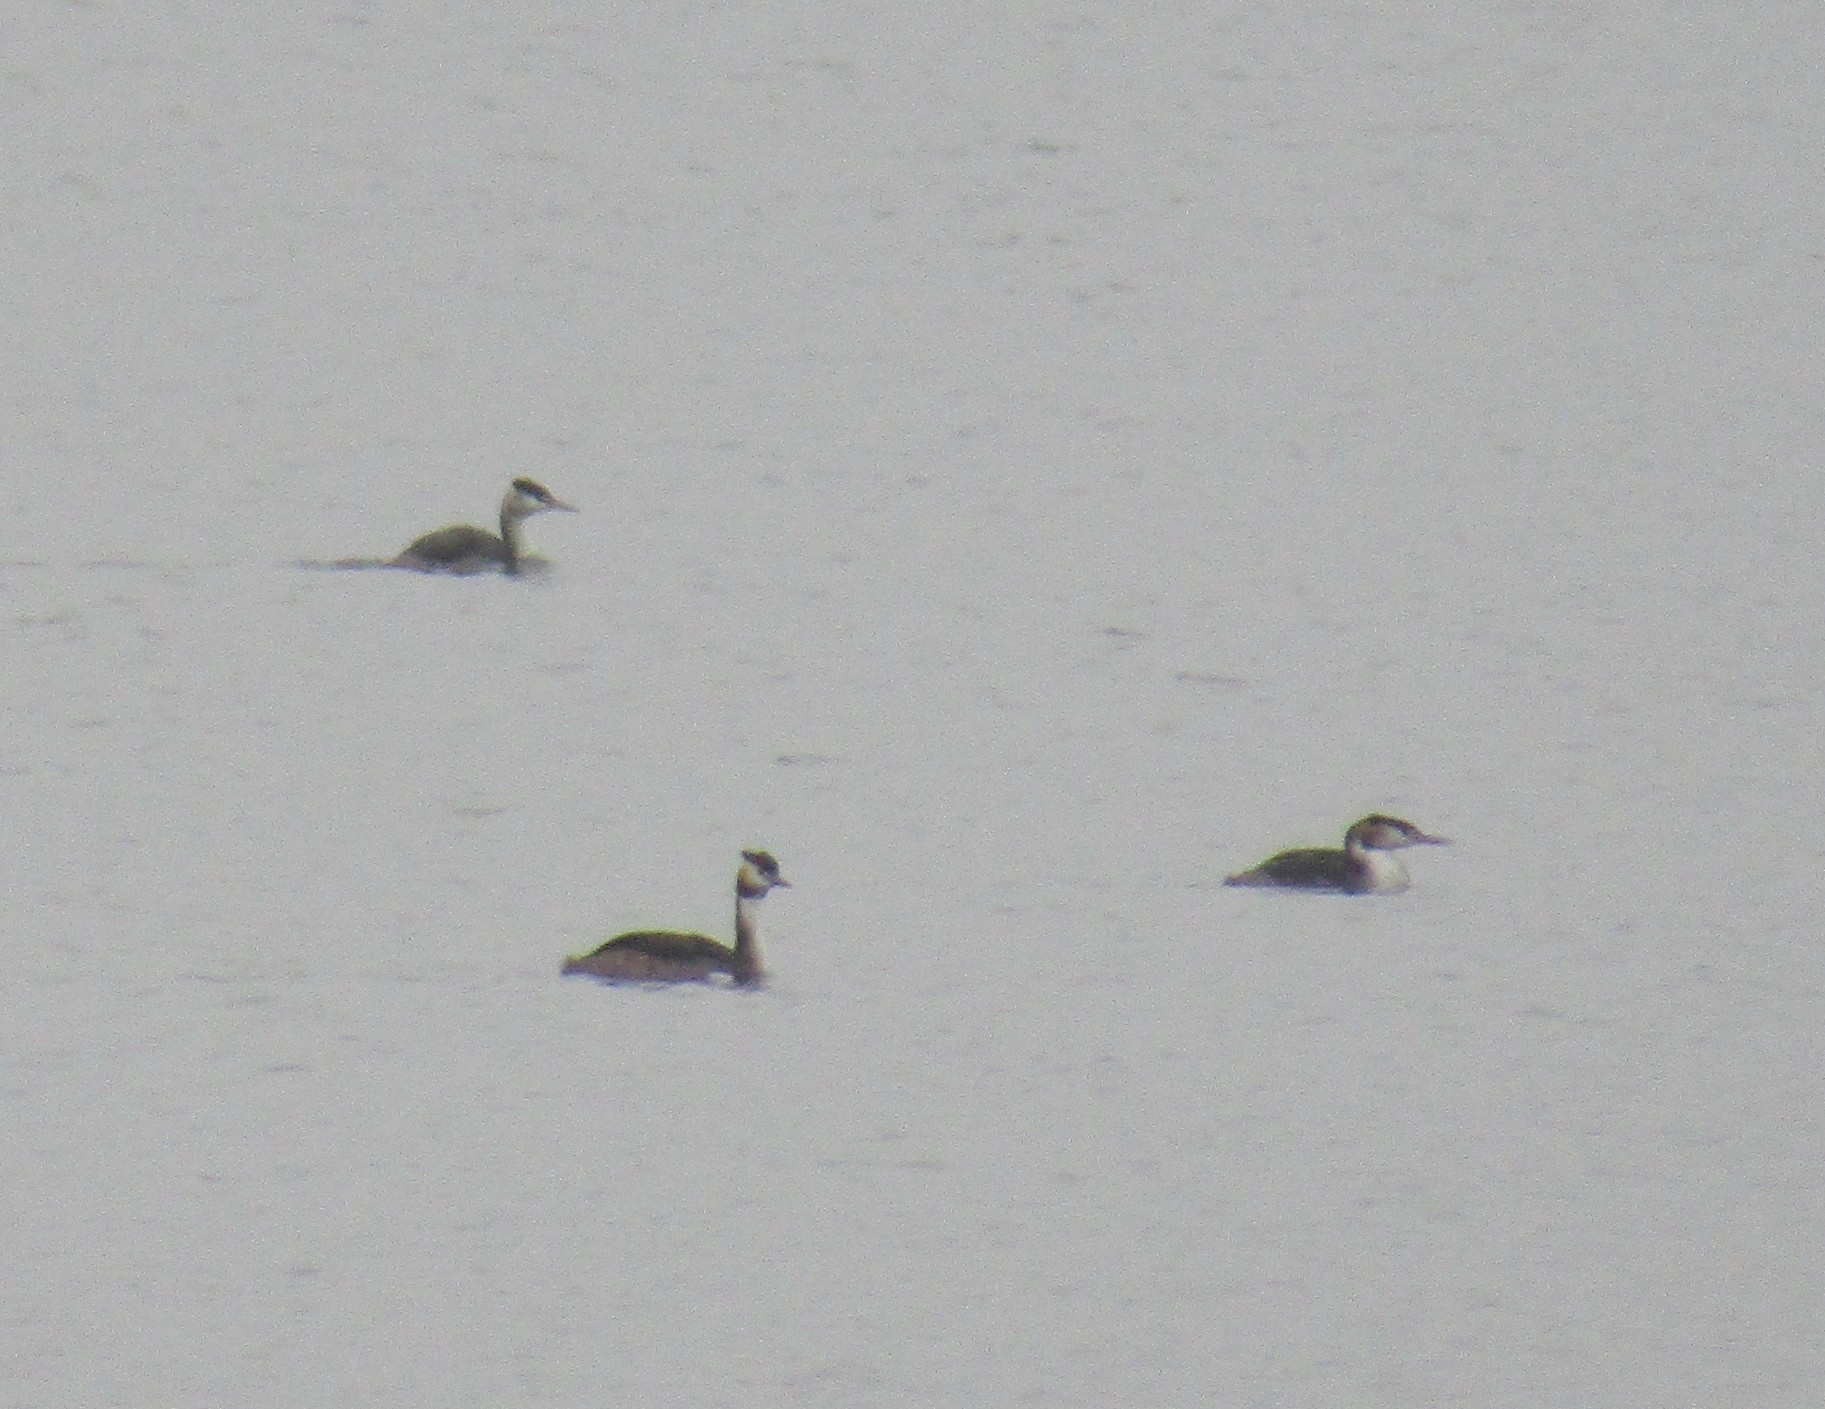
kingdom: Animalia
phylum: Chordata
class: Aves
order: Podicipediformes
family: Podicipedidae
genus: Podiceps
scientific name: Podiceps cristatus
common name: Great crested grebe
